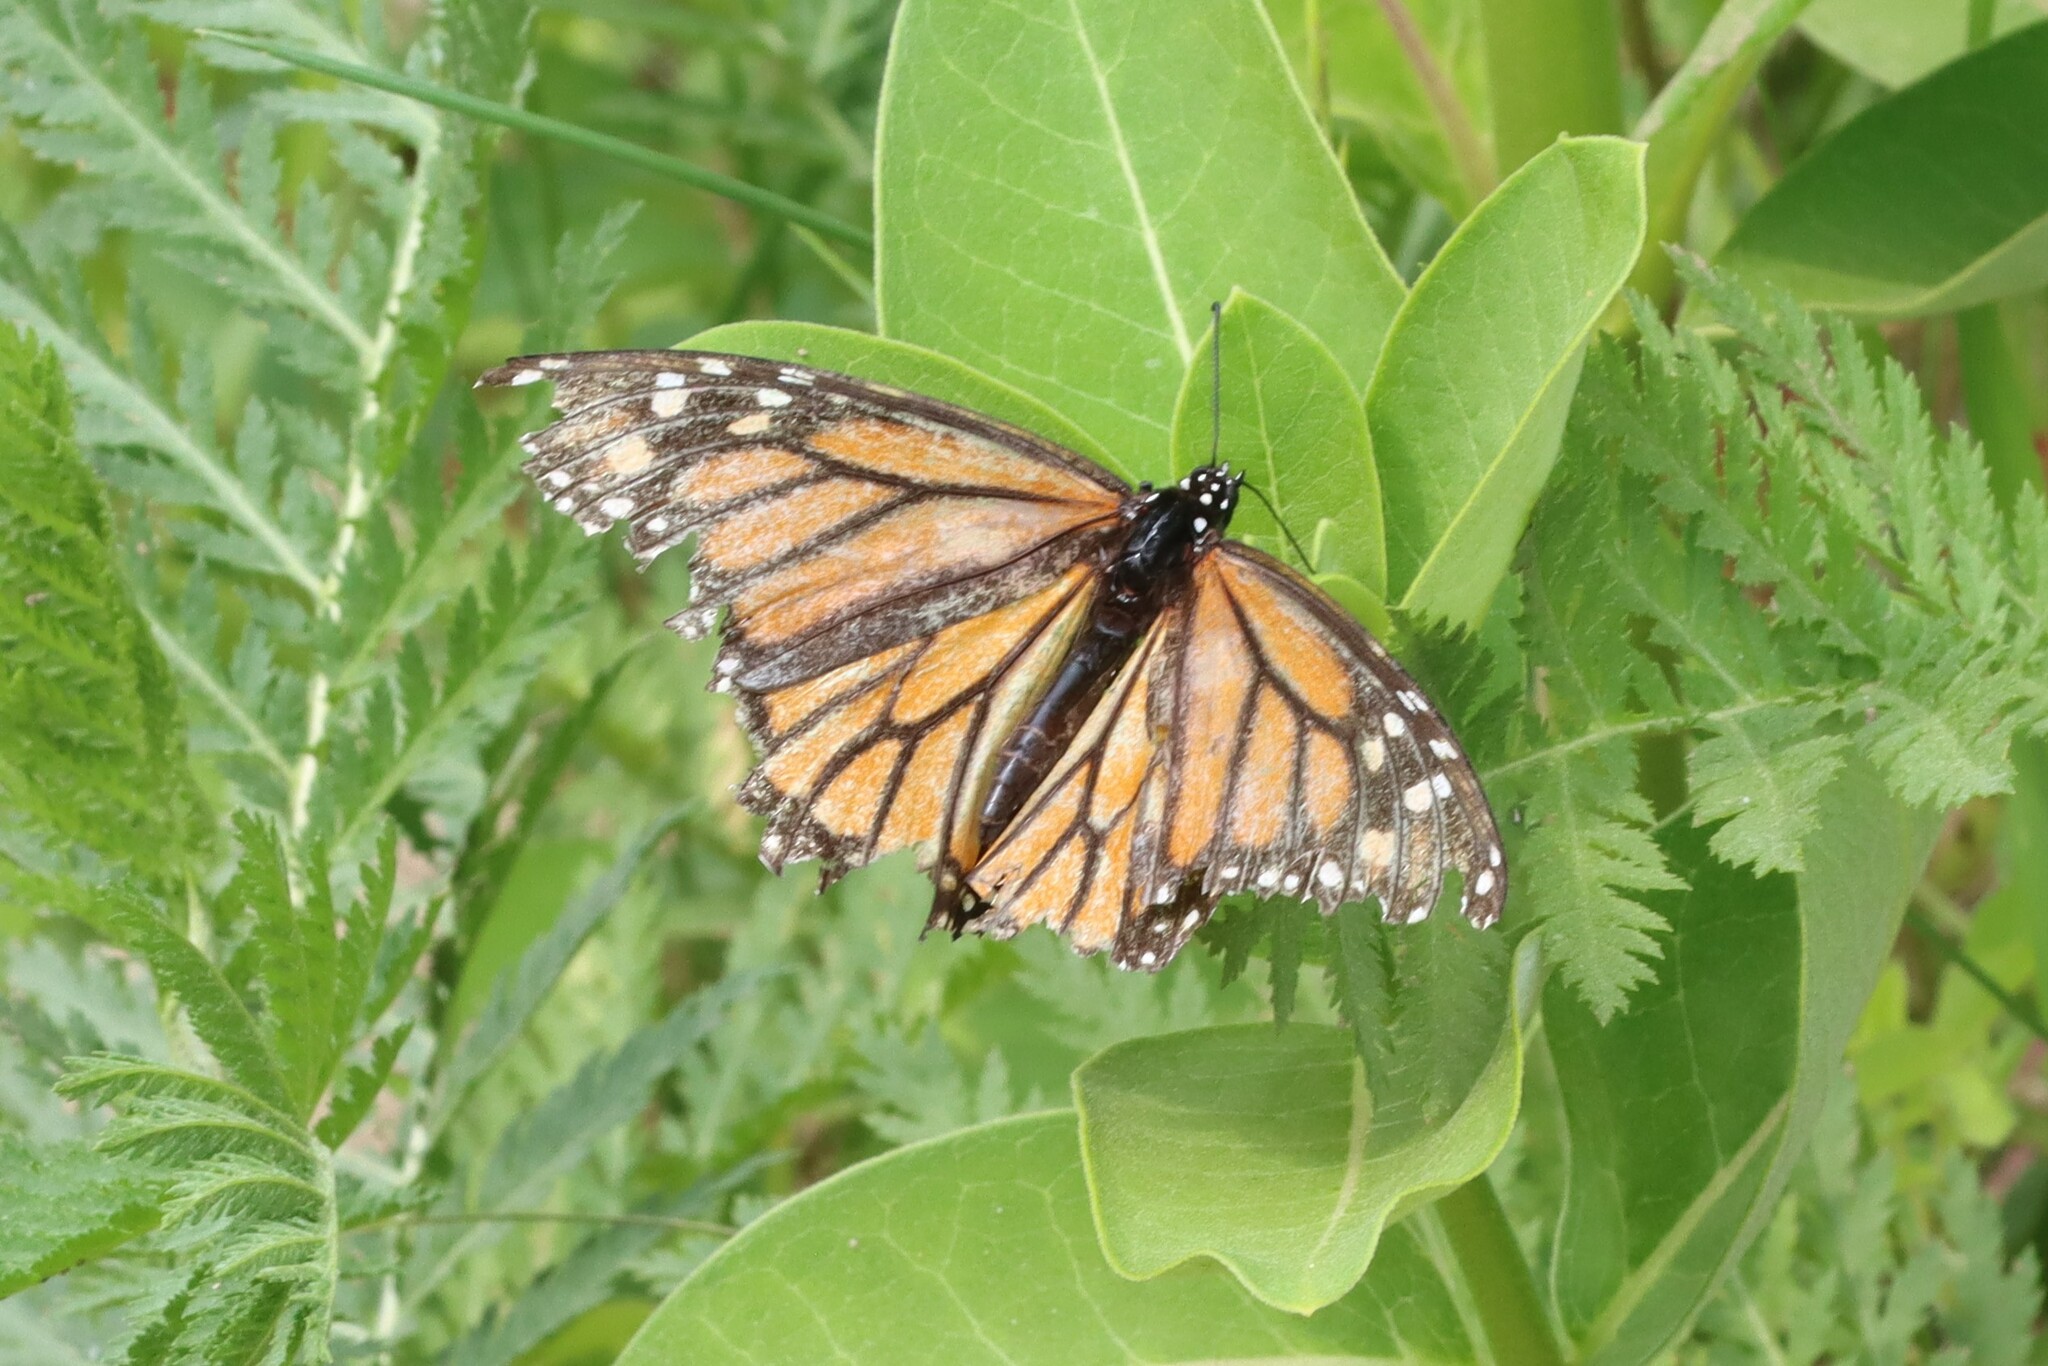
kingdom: Animalia
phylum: Arthropoda
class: Insecta
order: Lepidoptera
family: Nymphalidae
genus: Danaus
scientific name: Danaus plexippus
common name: Monarch
